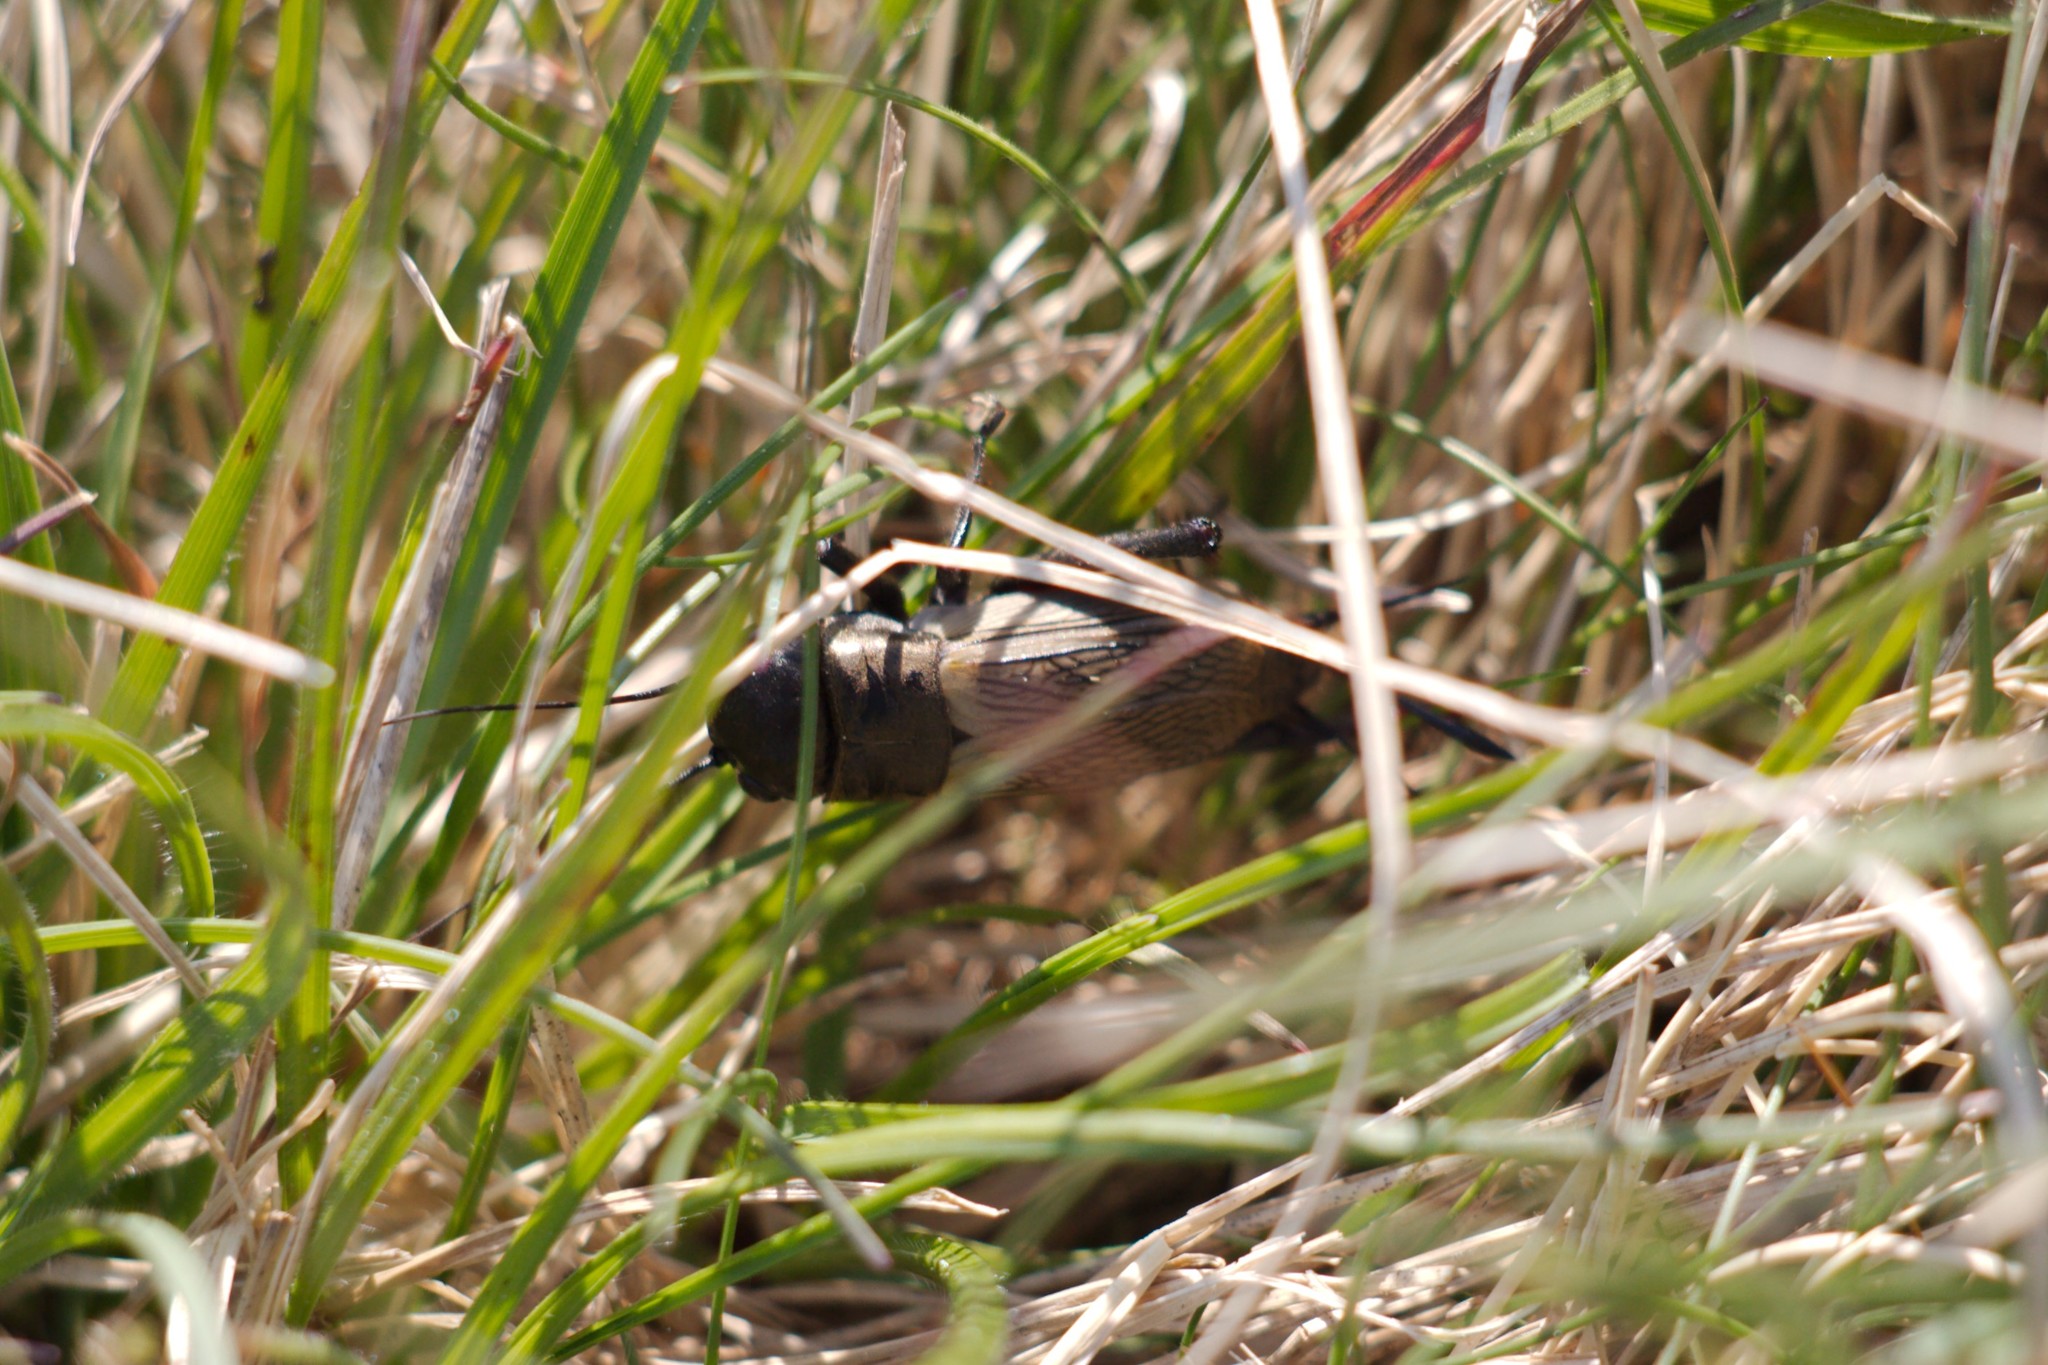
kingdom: Animalia
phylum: Arthropoda
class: Insecta
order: Orthoptera
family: Gryllidae
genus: Gryllus
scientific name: Gryllus campestris
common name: Field cricket
